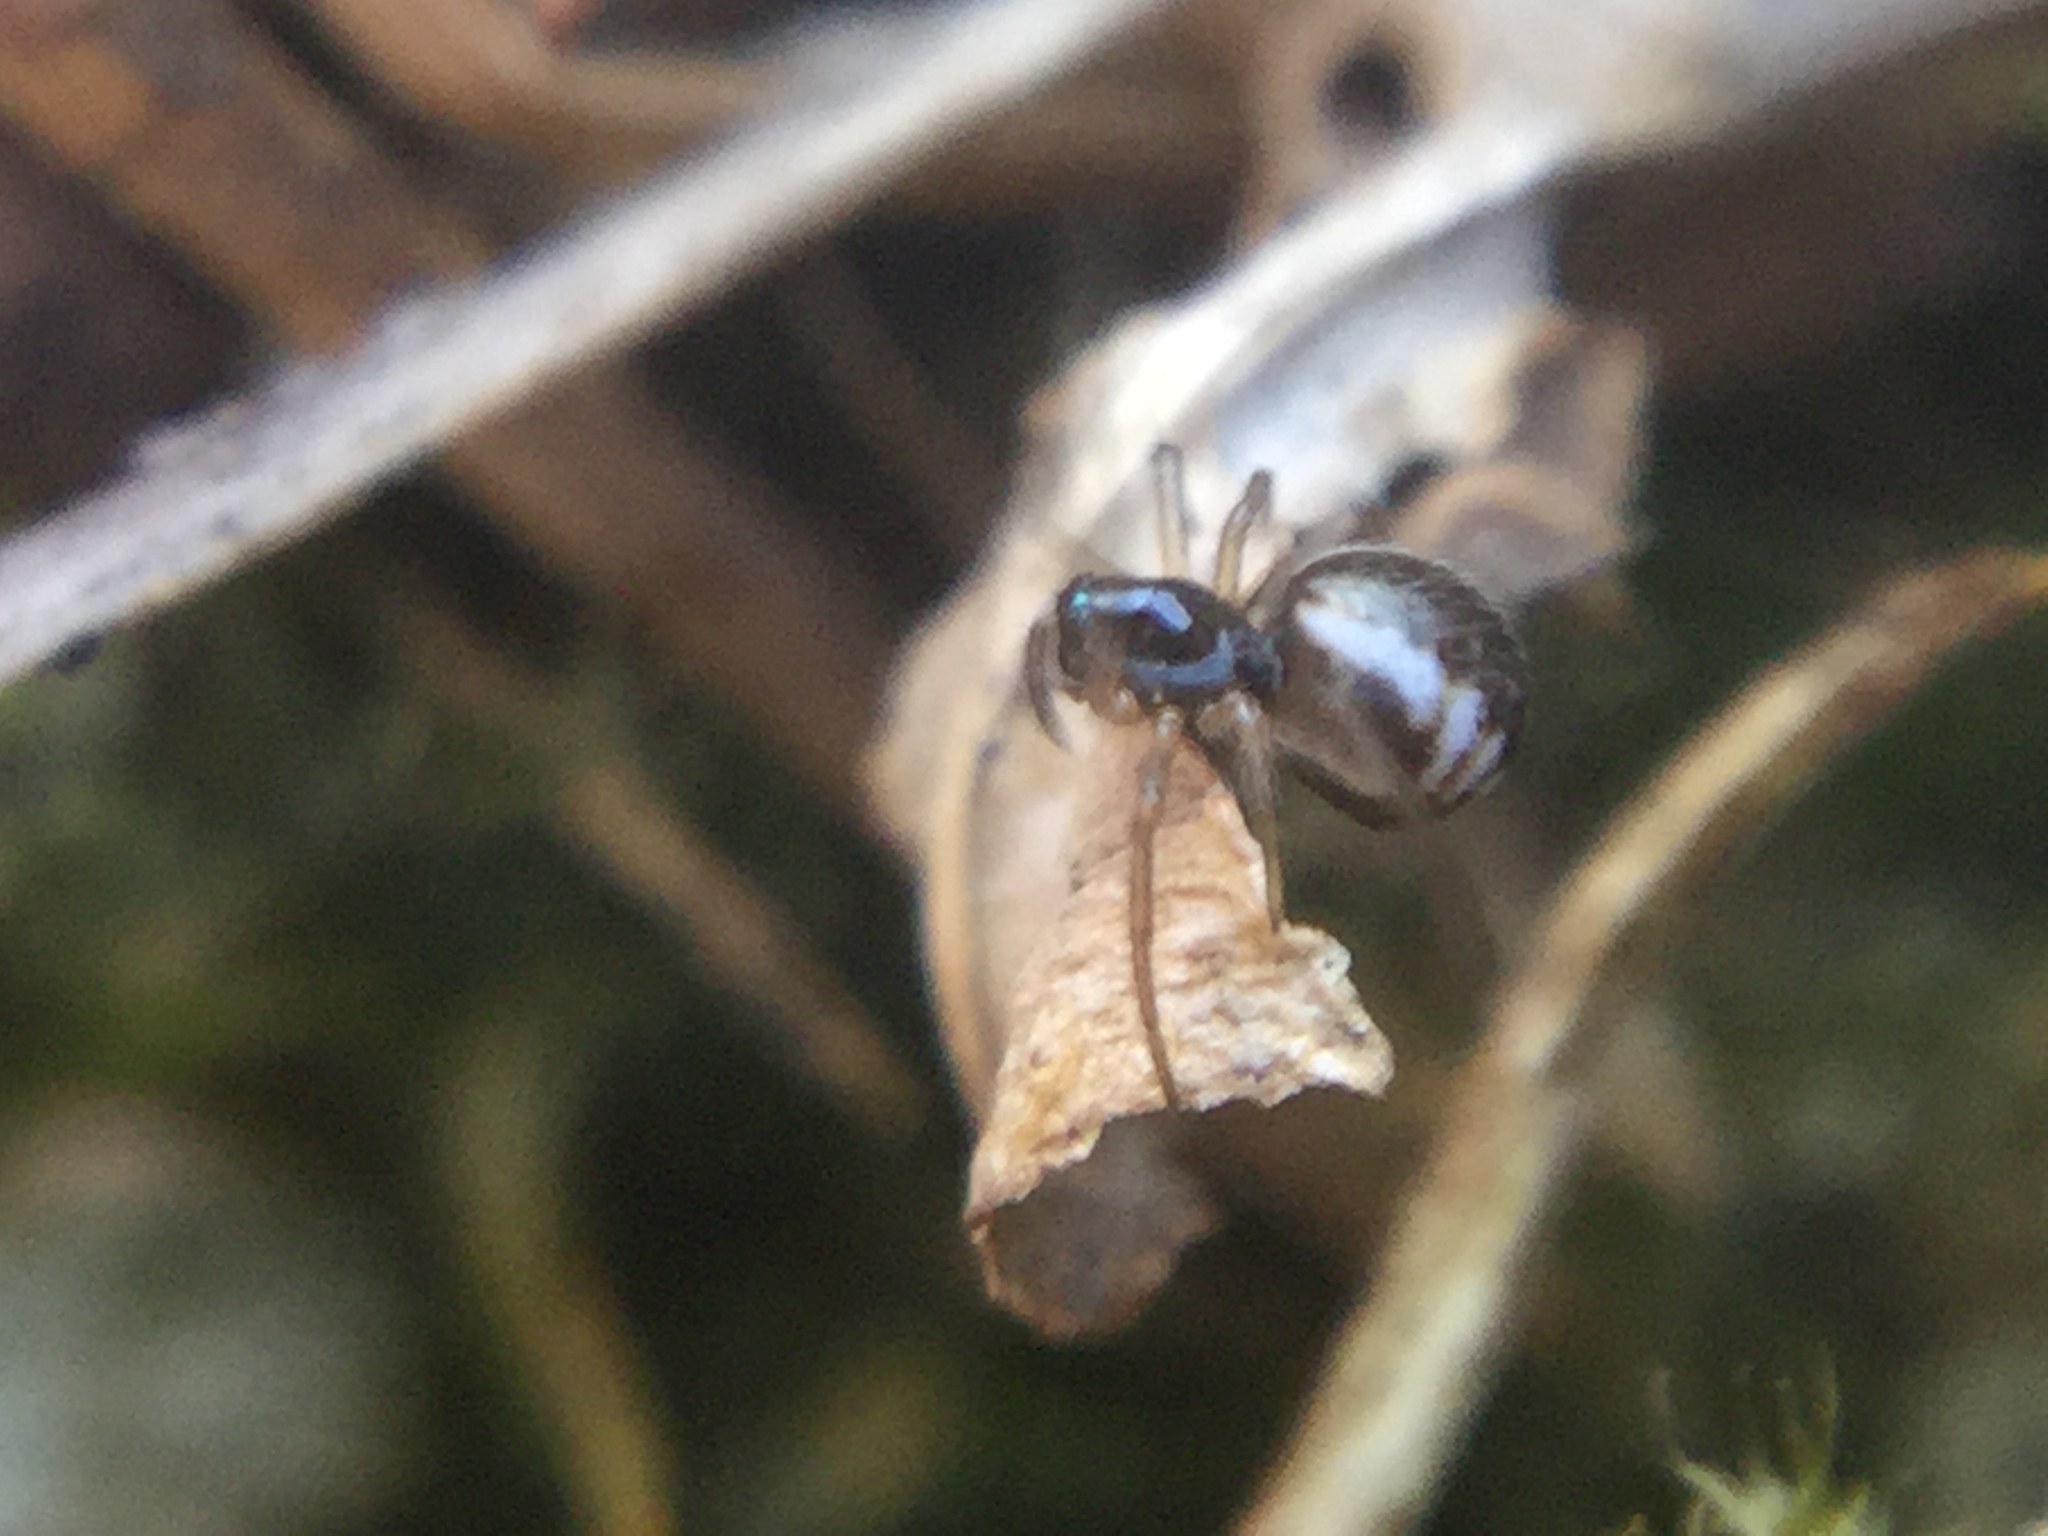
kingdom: Animalia
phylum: Arthropoda
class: Arachnida
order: Araneae
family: Linyphiidae
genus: Frontinella
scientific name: Frontinella pyramitela
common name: Bowl-and-doily spider
